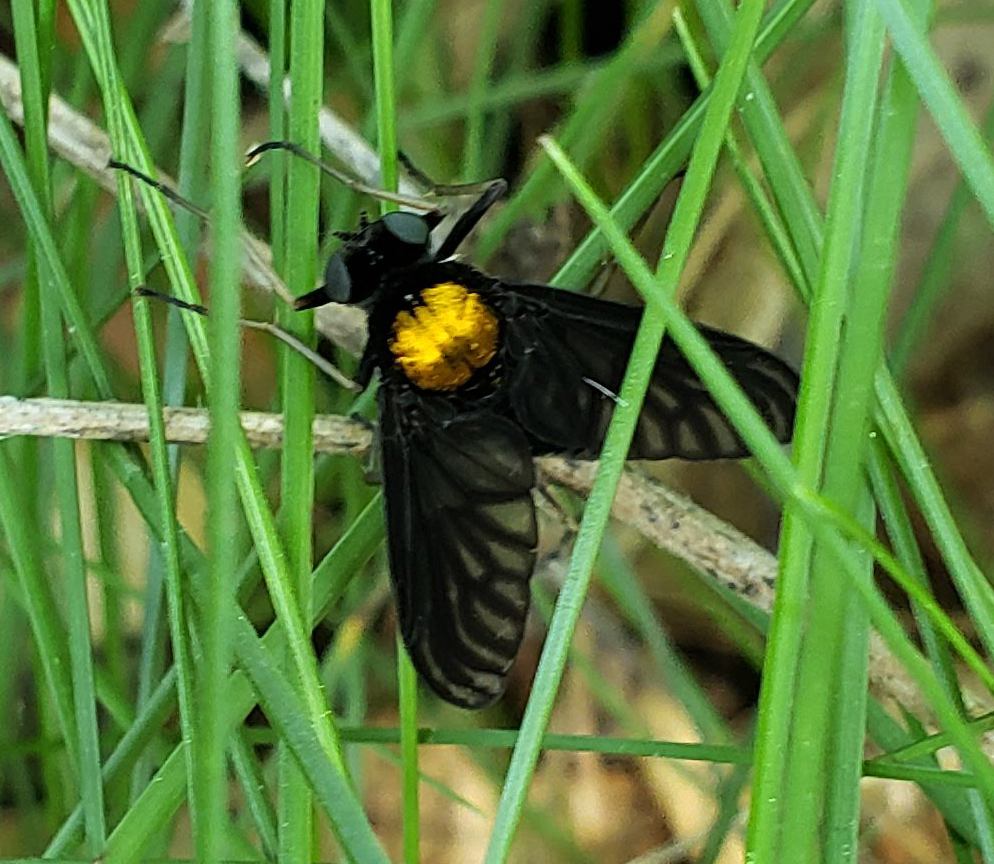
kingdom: Animalia
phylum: Arthropoda
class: Insecta
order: Diptera
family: Rhagionidae
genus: Chrysopilus
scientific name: Chrysopilus thoracicus
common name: Golden-backed snipe fly
